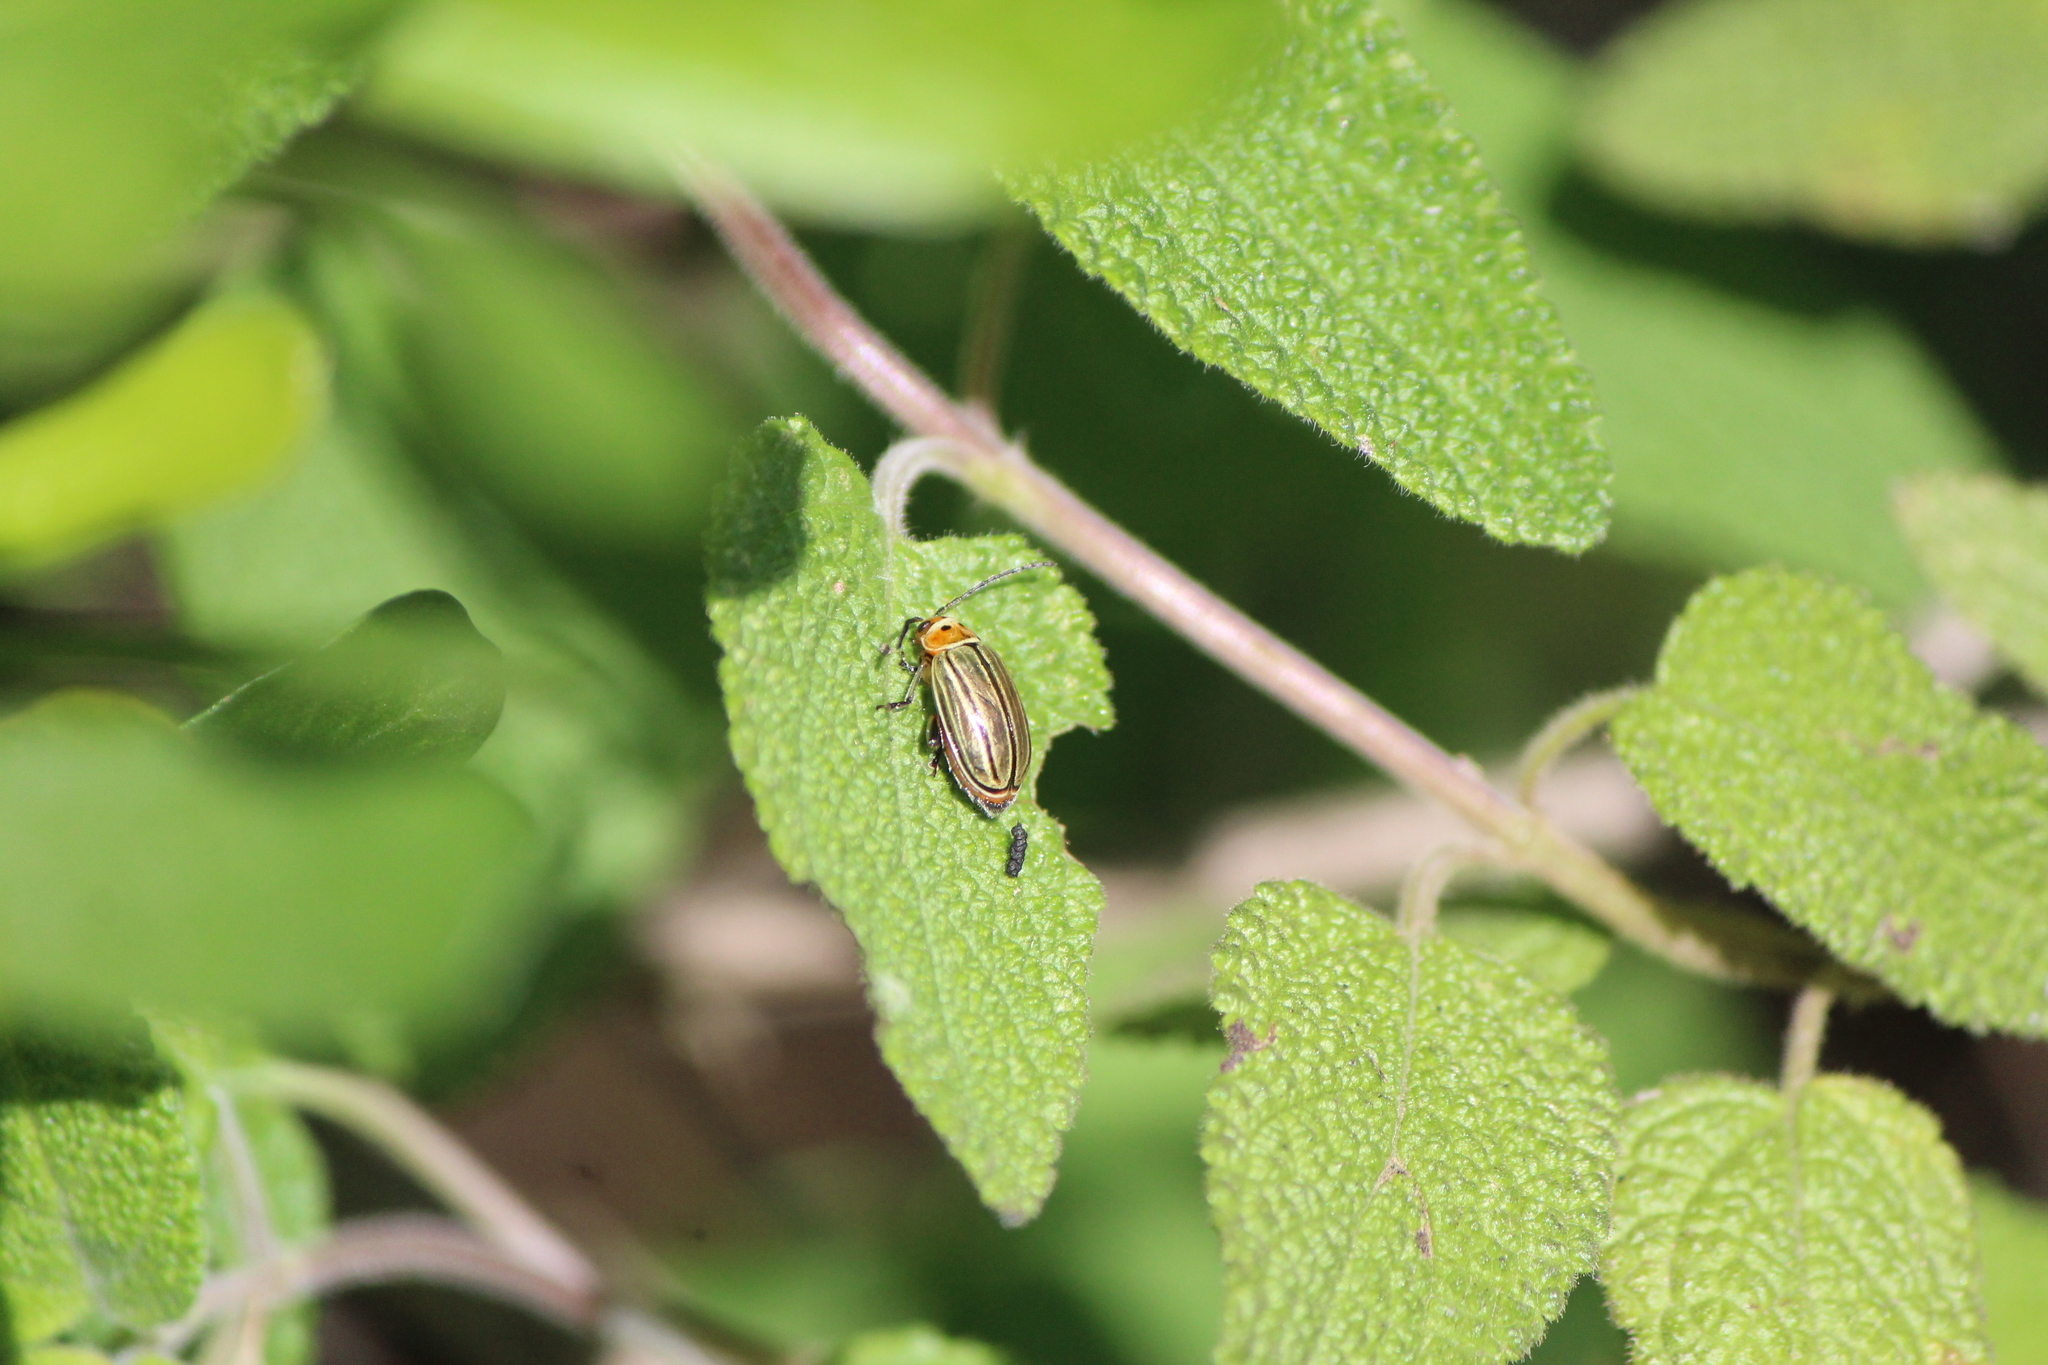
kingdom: Animalia
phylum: Arthropoda
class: Insecta
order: Coleoptera
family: Chrysomelidae
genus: Disonycha
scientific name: Disonycha figurata
